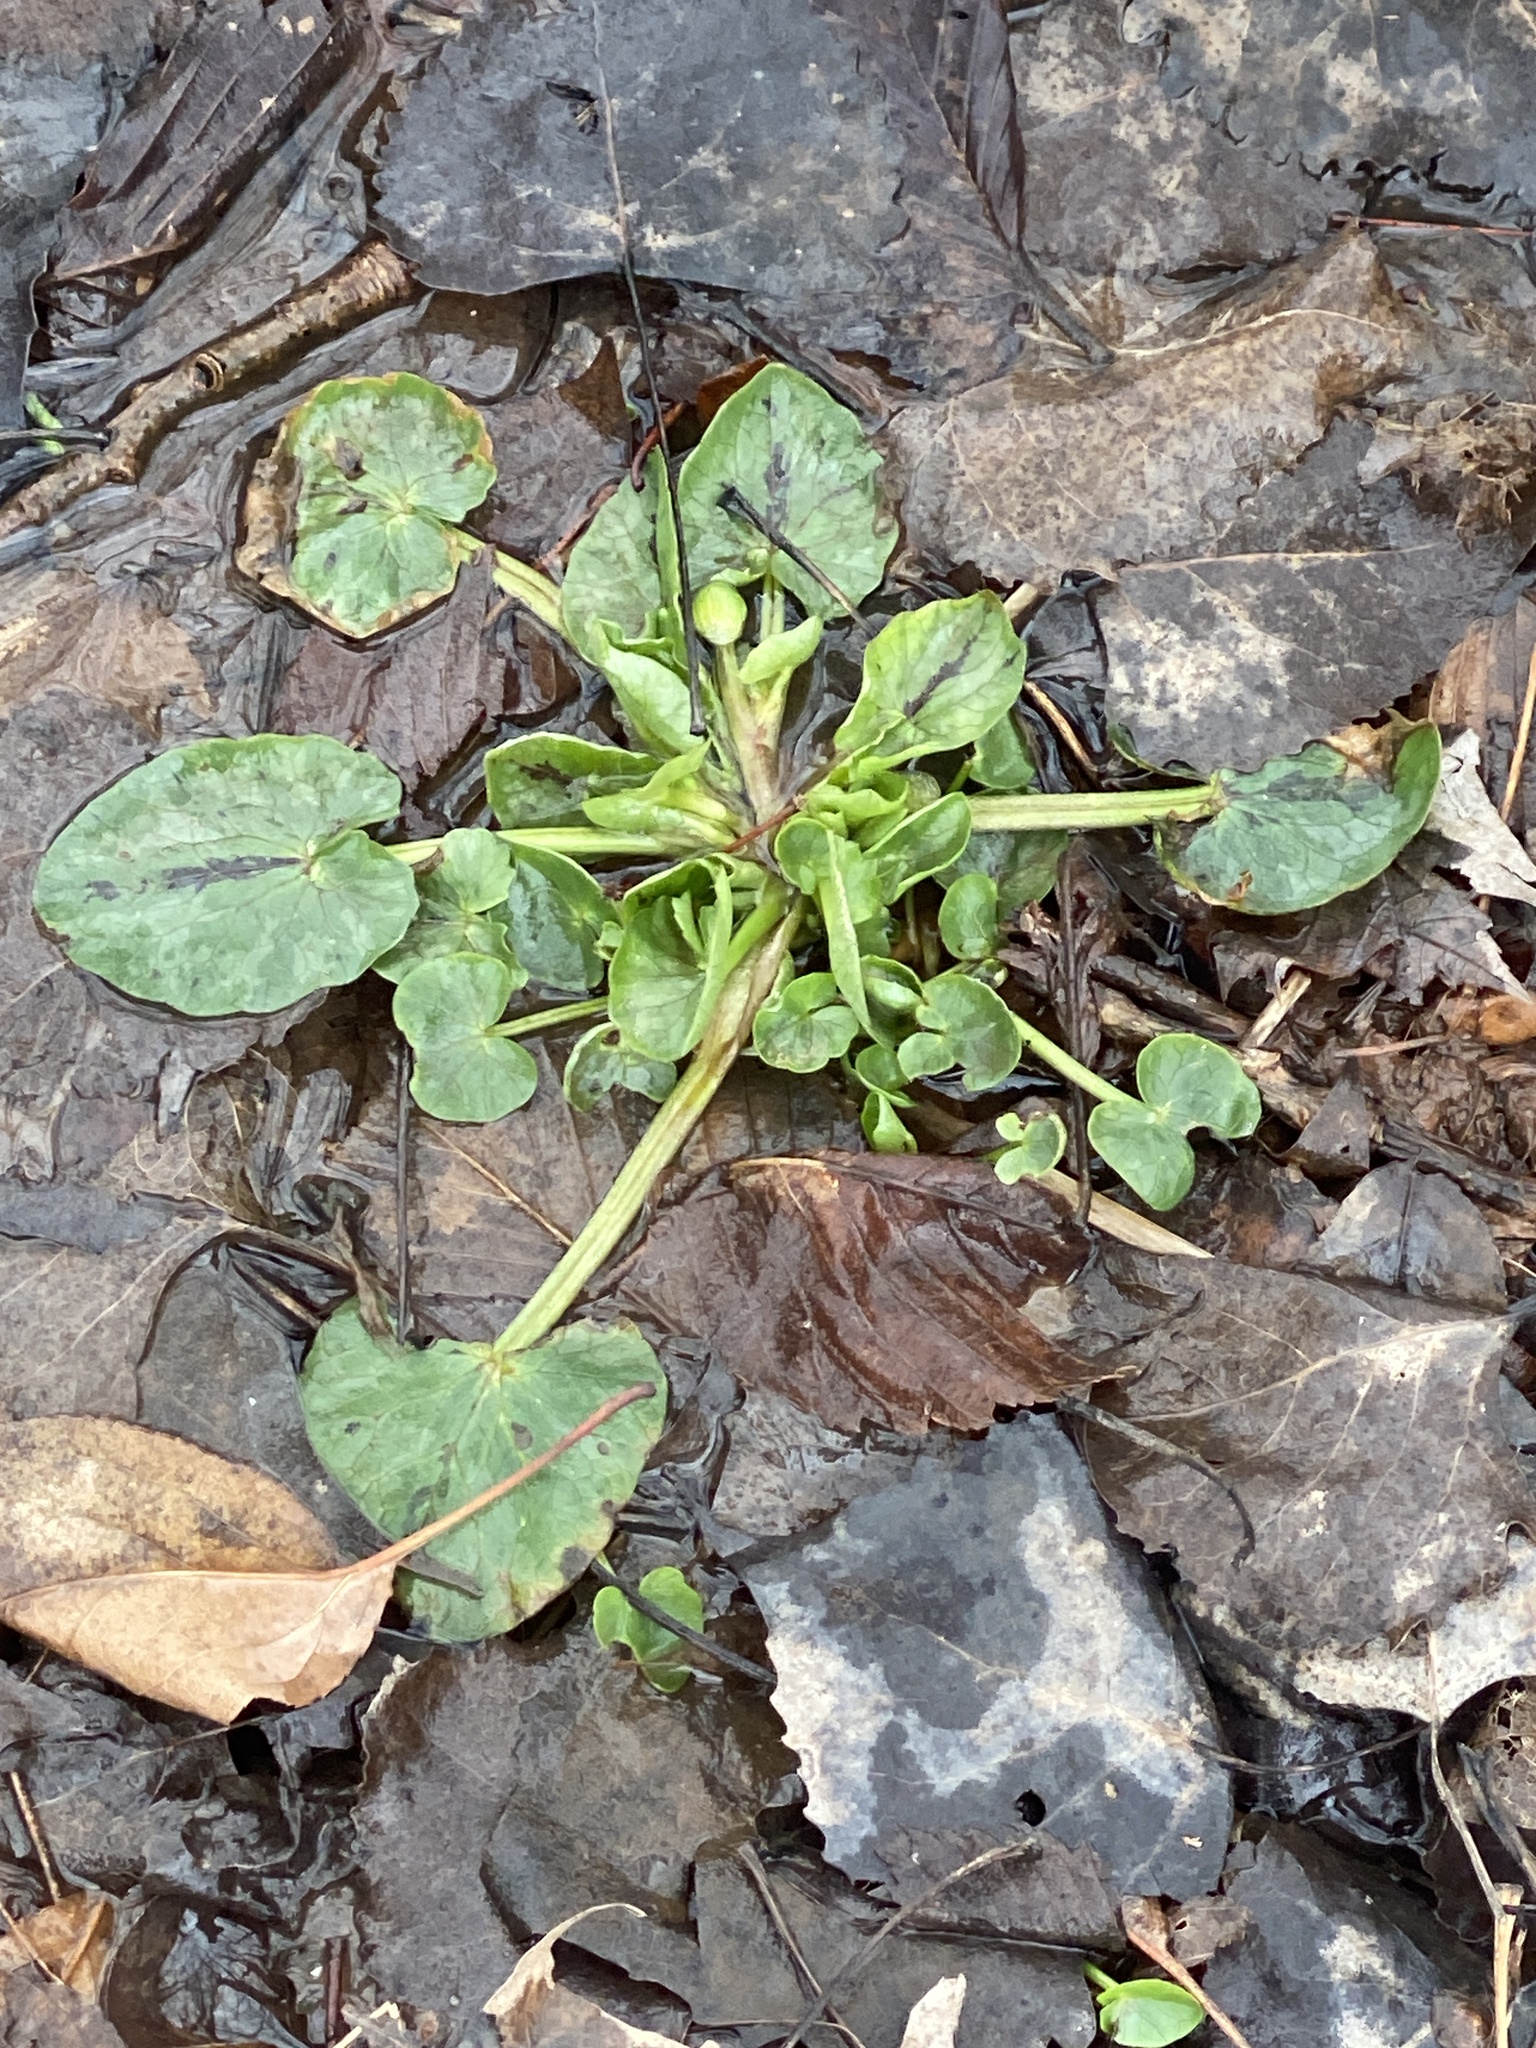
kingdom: Plantae
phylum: Tracheophyta
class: Magnoliopsida
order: Ranunculales
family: Ranunculaceae
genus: Ficaria
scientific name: Ficaria verna
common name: Lesser celandine
